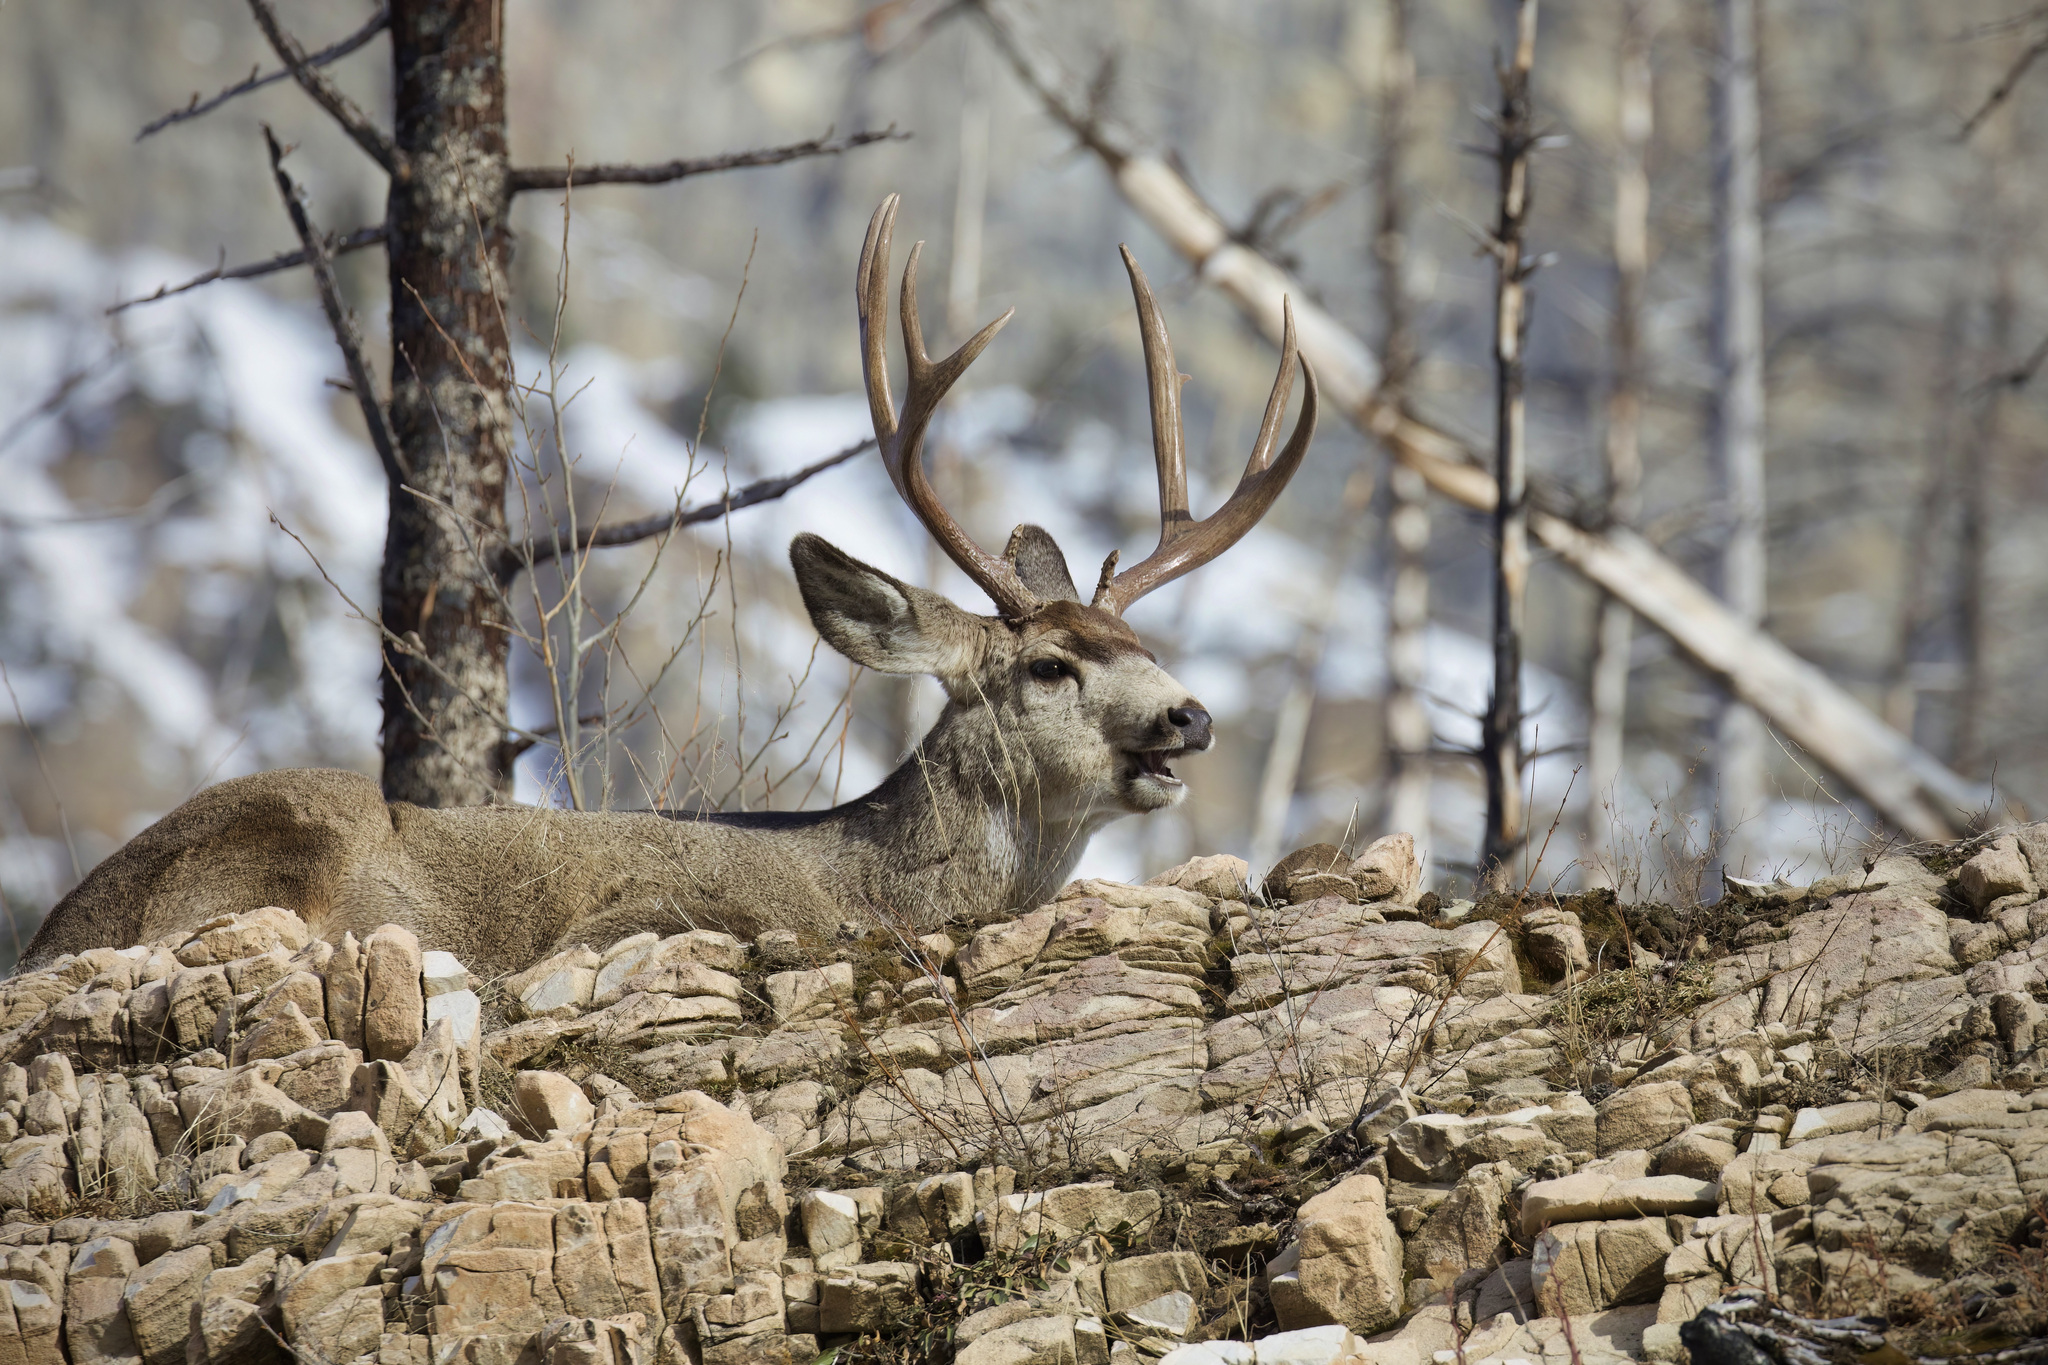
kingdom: Animalia
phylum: Chordata
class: Mammalia
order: Artiodactyla
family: Cervidae
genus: Odocoileus
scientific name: Odocoileus hemionus
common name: Mule deer
